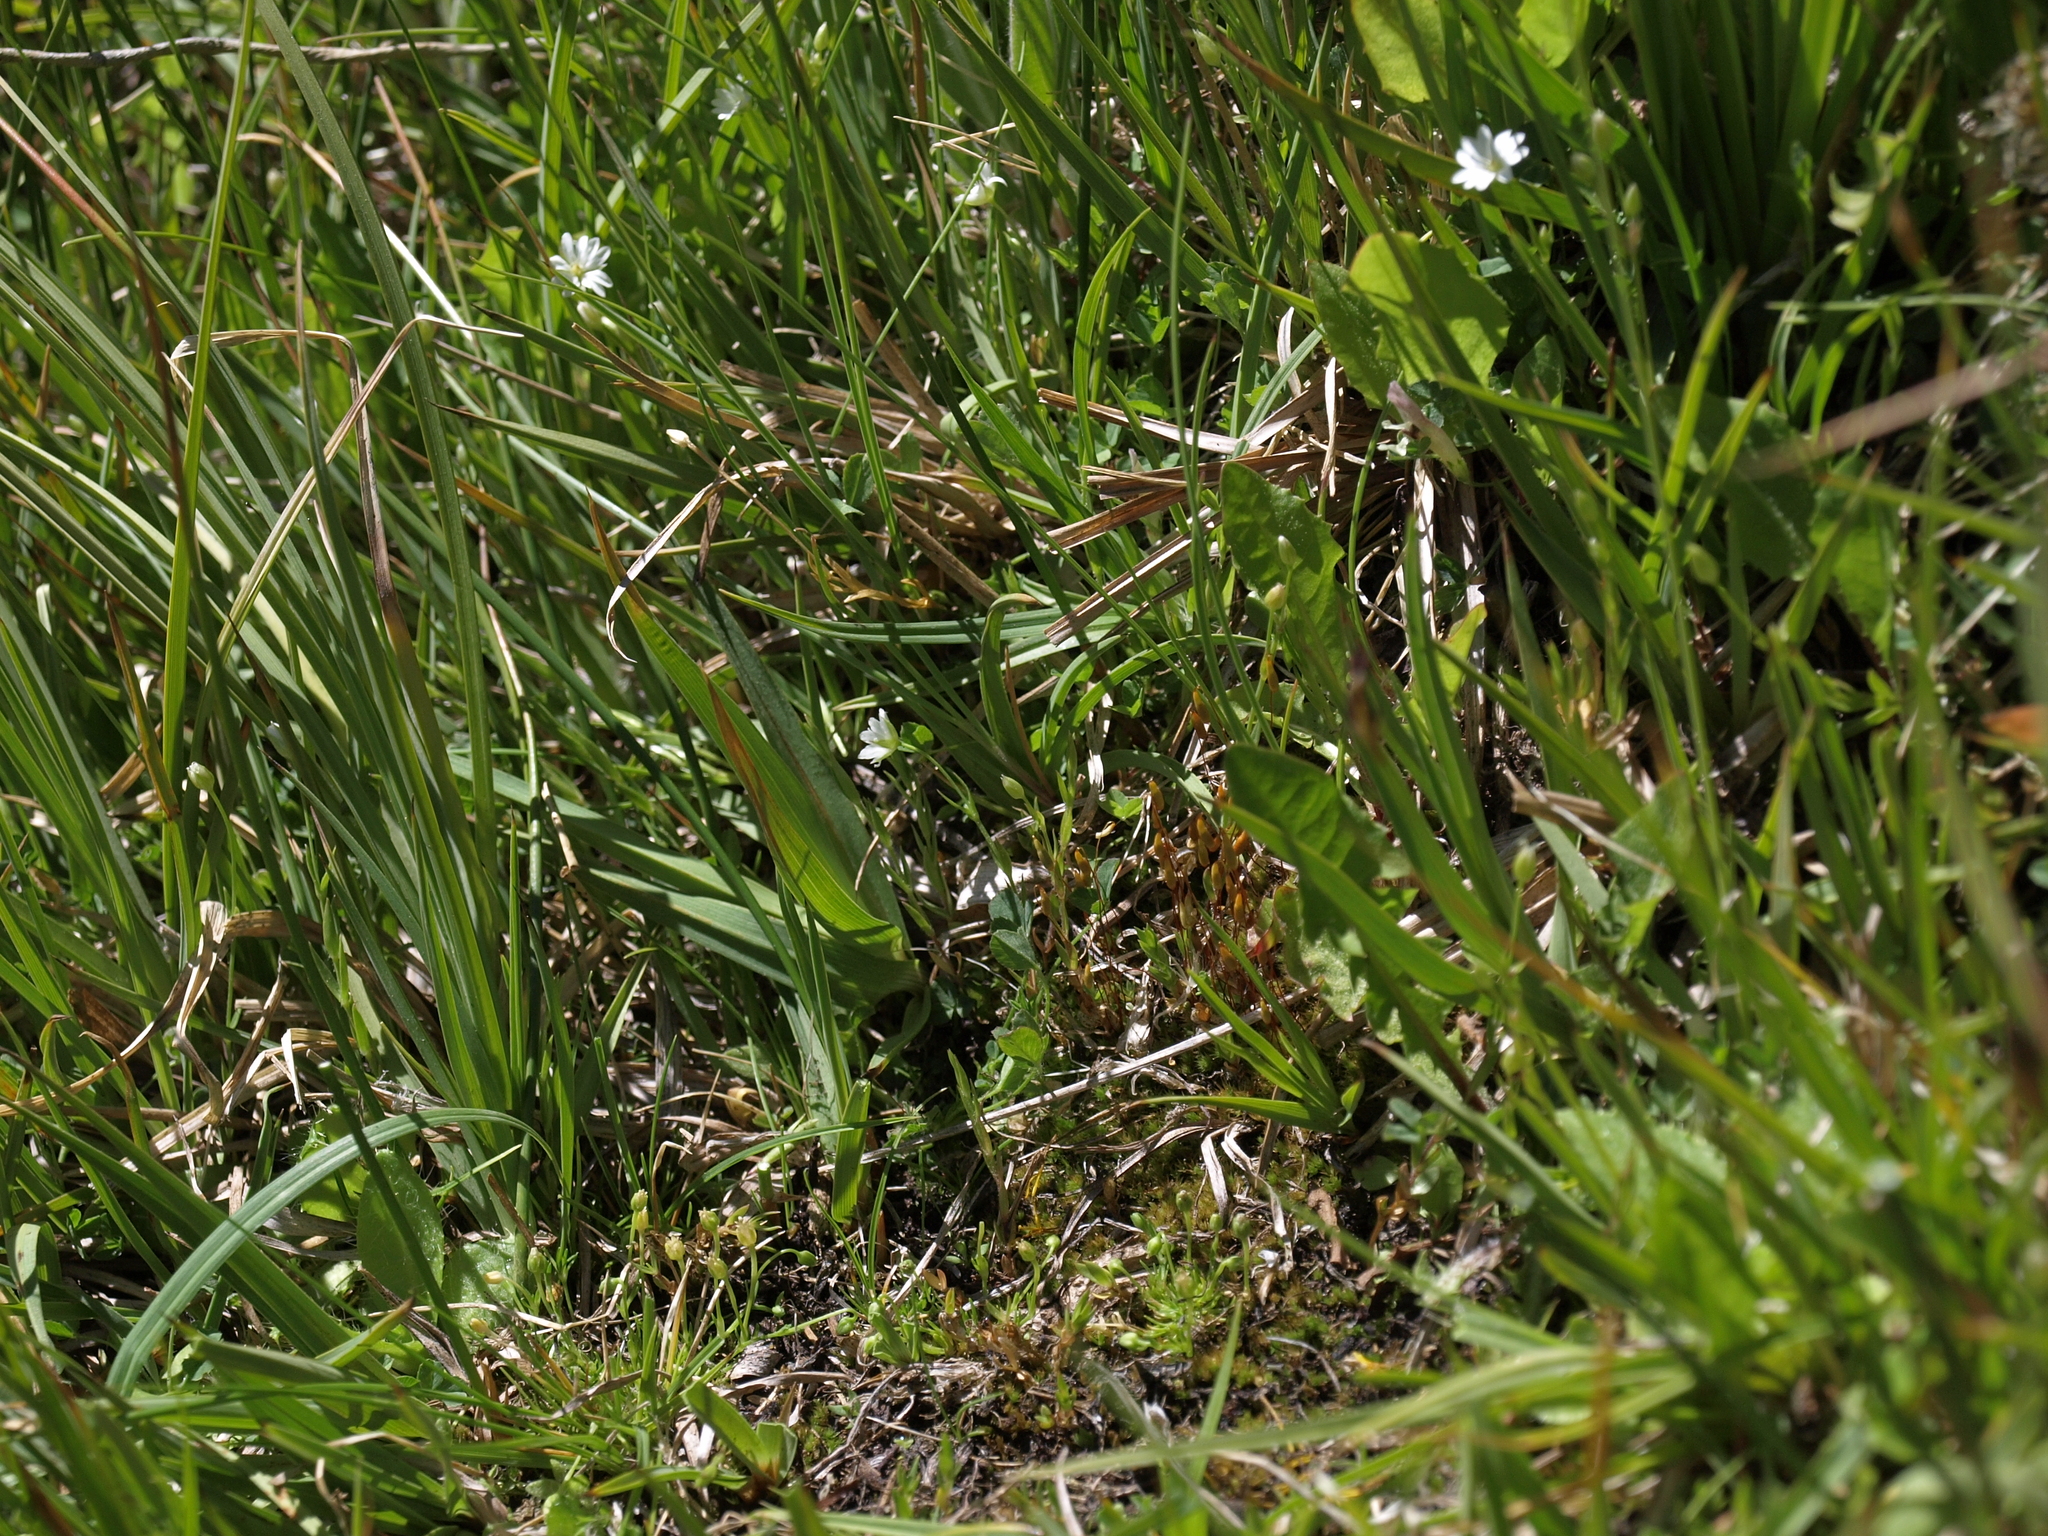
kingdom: Plantae
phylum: Tracheophyta
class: Magnoliopsida
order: Caryophyllales
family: Caryophyllaceae
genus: Sagina
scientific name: Sagina saginoides
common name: Alpine pearlwort
